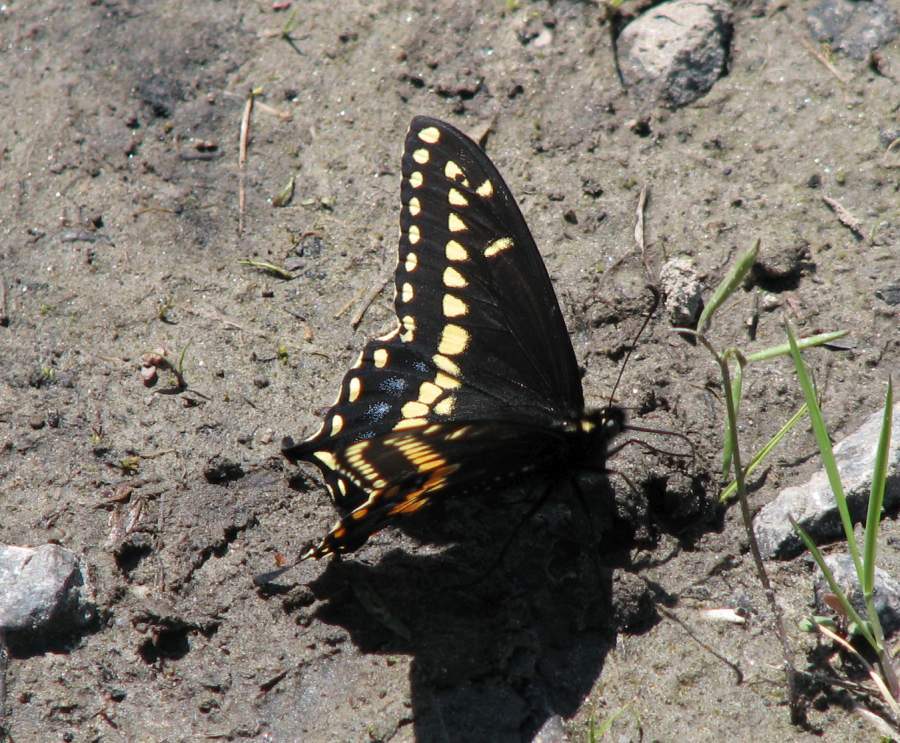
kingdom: Animalia
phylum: Arthropoda
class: Insecta
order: Lepidoptera
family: Papilionidae
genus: Papilio
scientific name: Papilio polyxenes
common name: Black swallowtail
